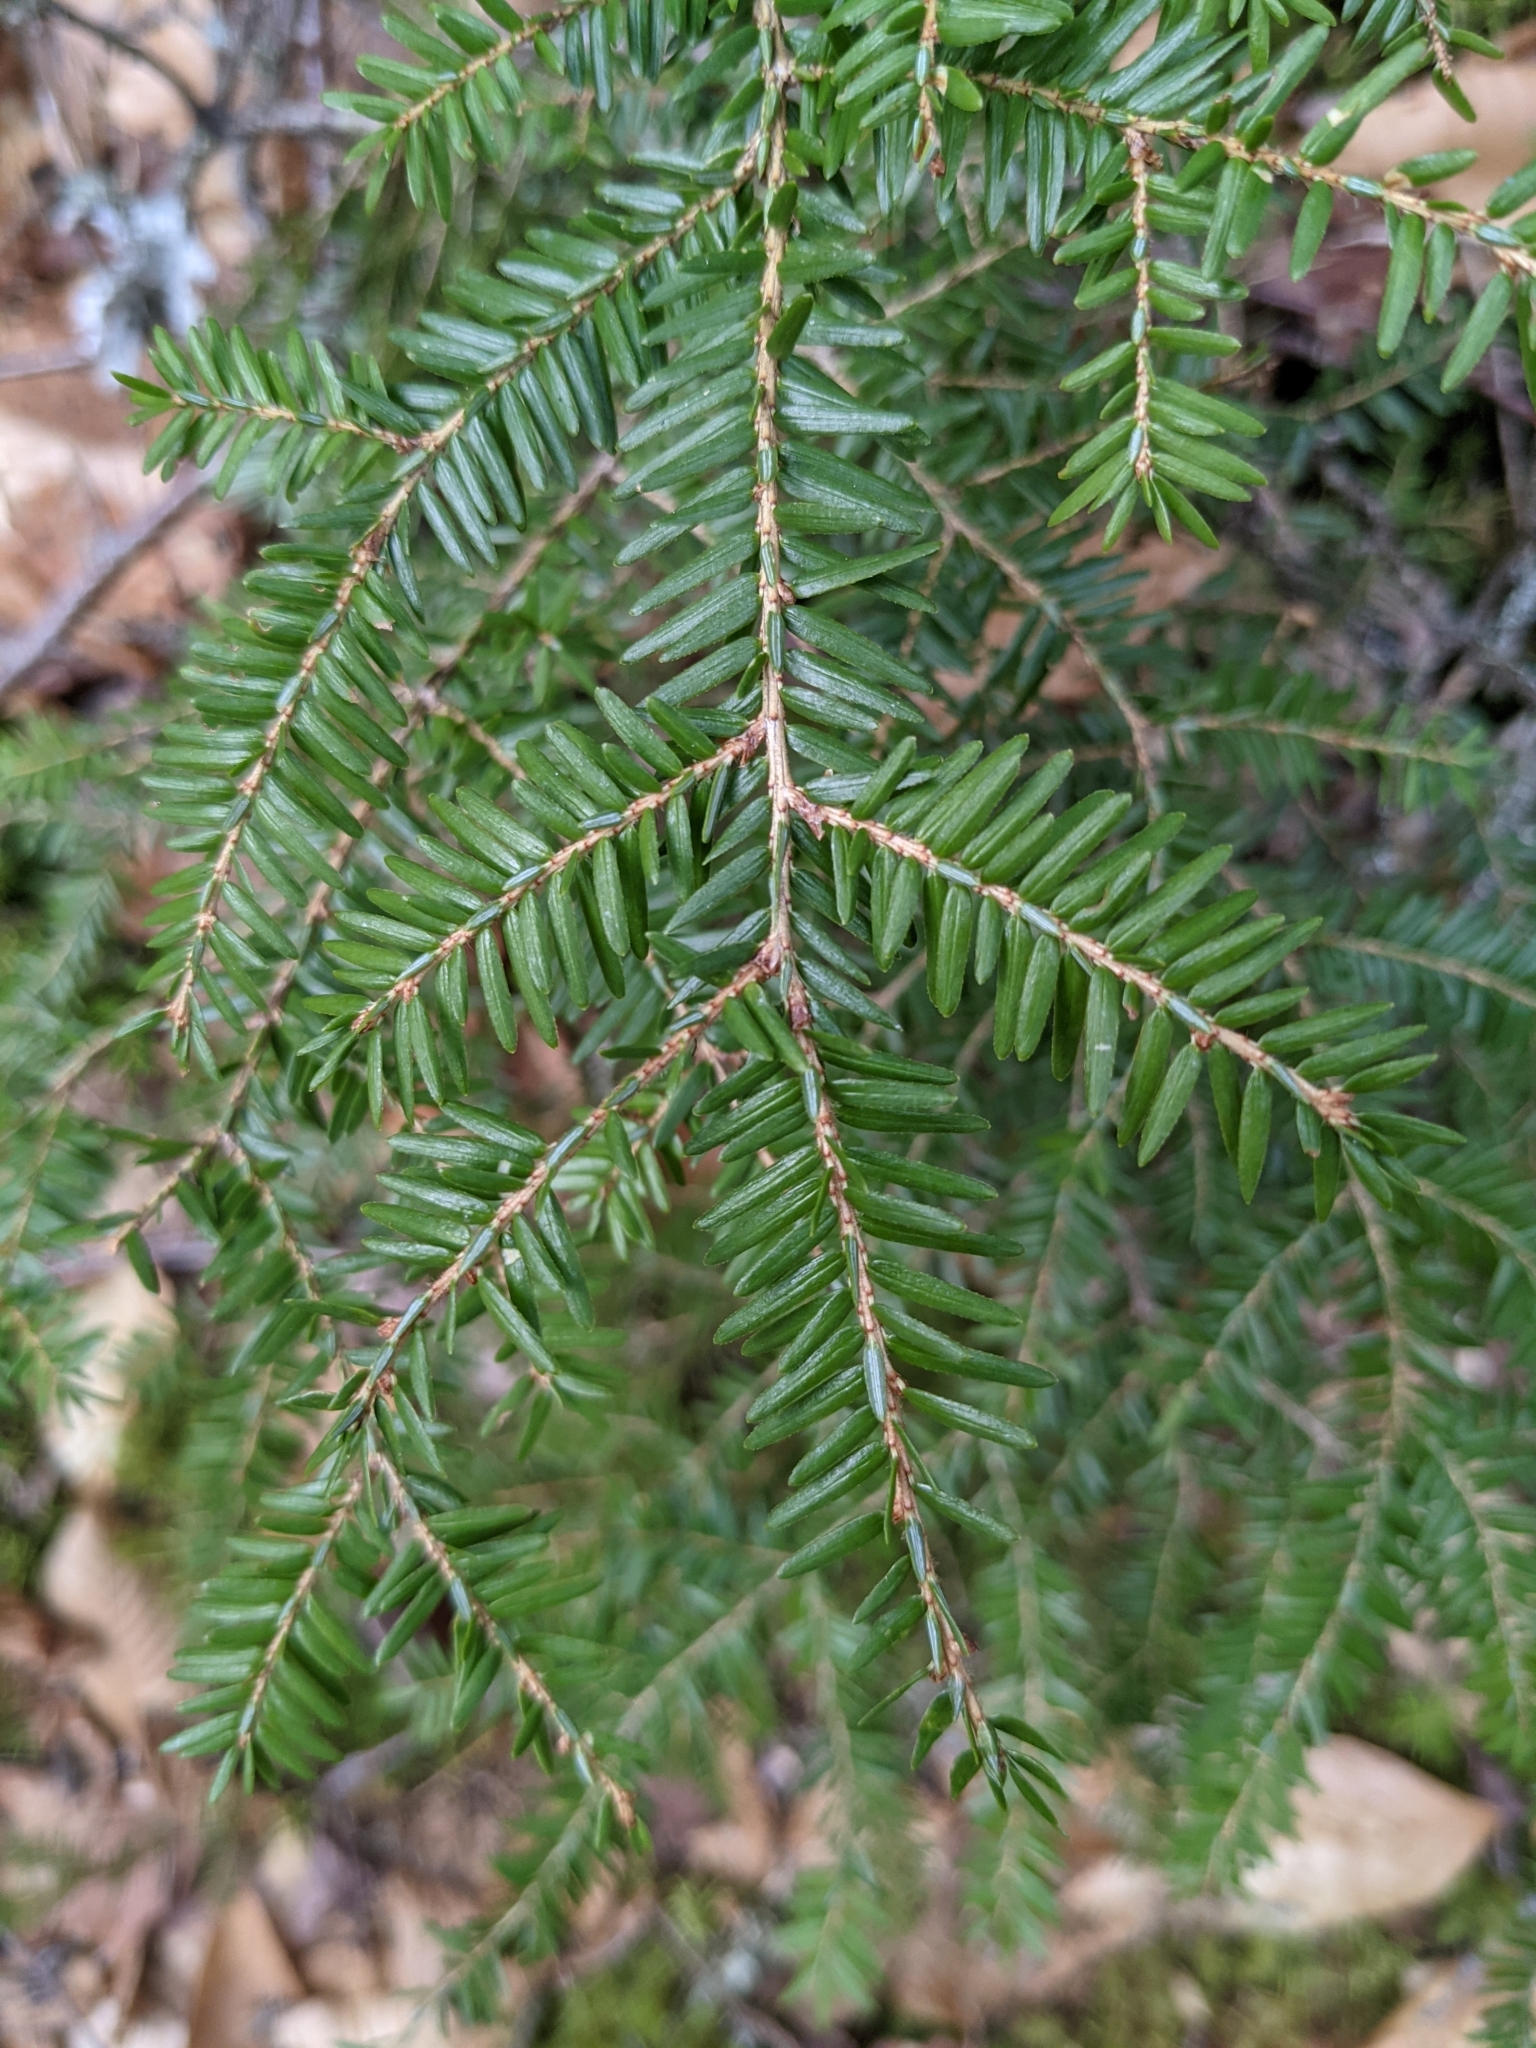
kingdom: Plantae
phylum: Tracheophyta
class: Pinopsida
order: Pinales
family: Pinaceae
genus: Tsuga
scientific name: Tsuga canadensis
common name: Eastern hemlock
